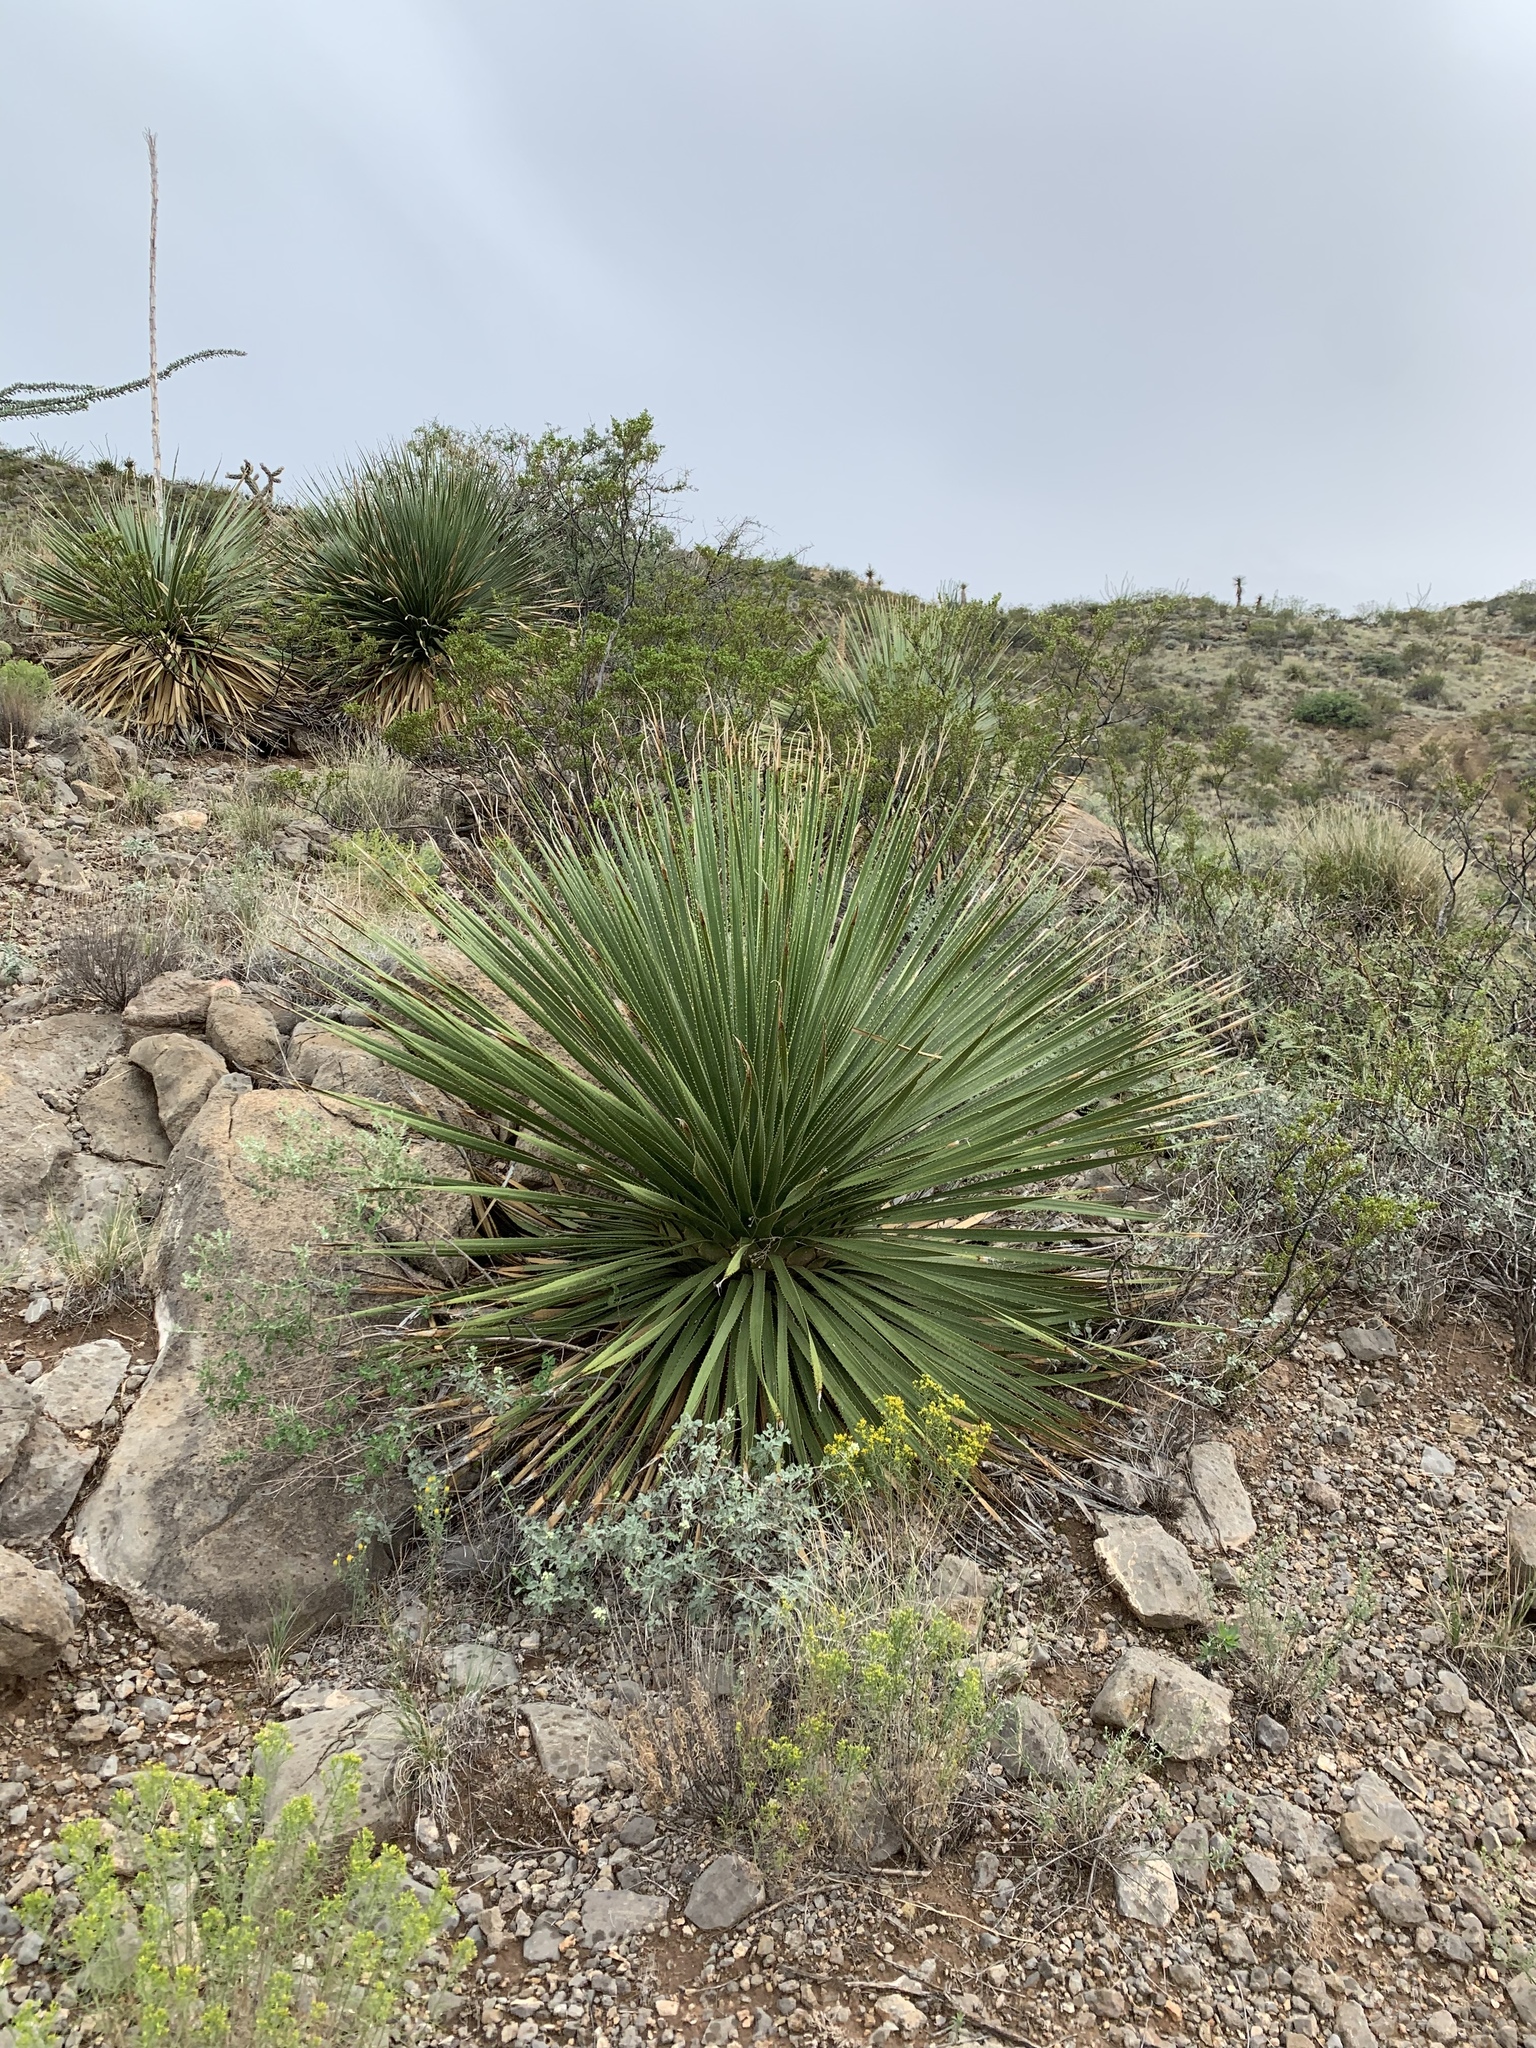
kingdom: Plantae
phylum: Tracheophyta
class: Liliopsida
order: Asparagales
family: Asparagaceae
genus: Dasylirion
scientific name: Dasylirion wheeleri
